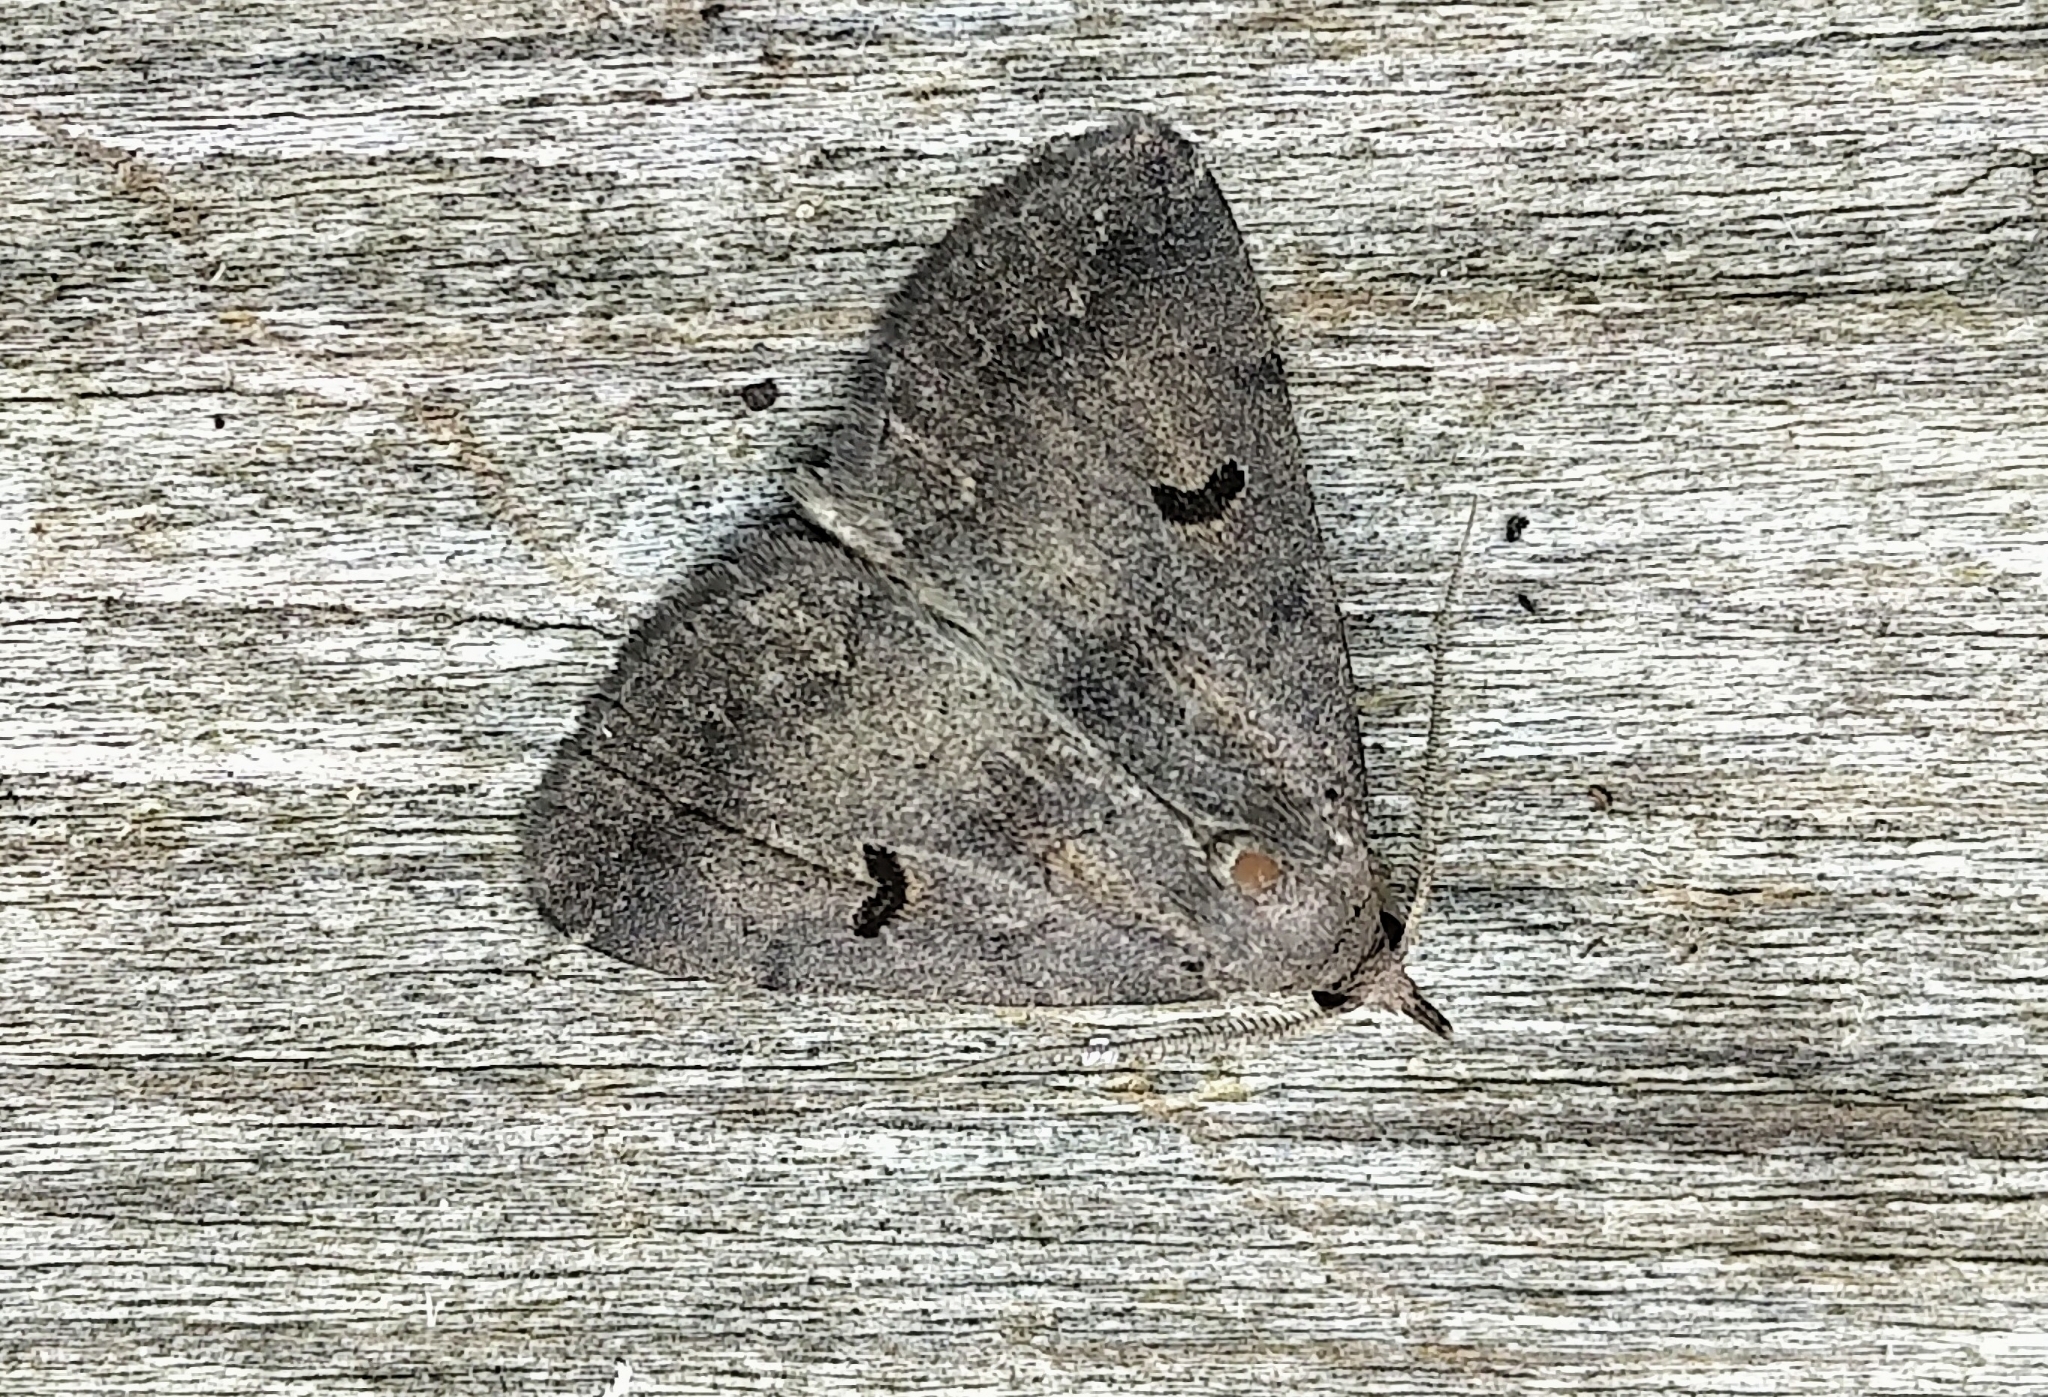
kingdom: Animalia
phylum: Arthropoda
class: Insecta
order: Lepidoptera
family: Erebidae
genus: Phalaenostola
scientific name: Phalaenostola hanhami
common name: Hanham's owlet
